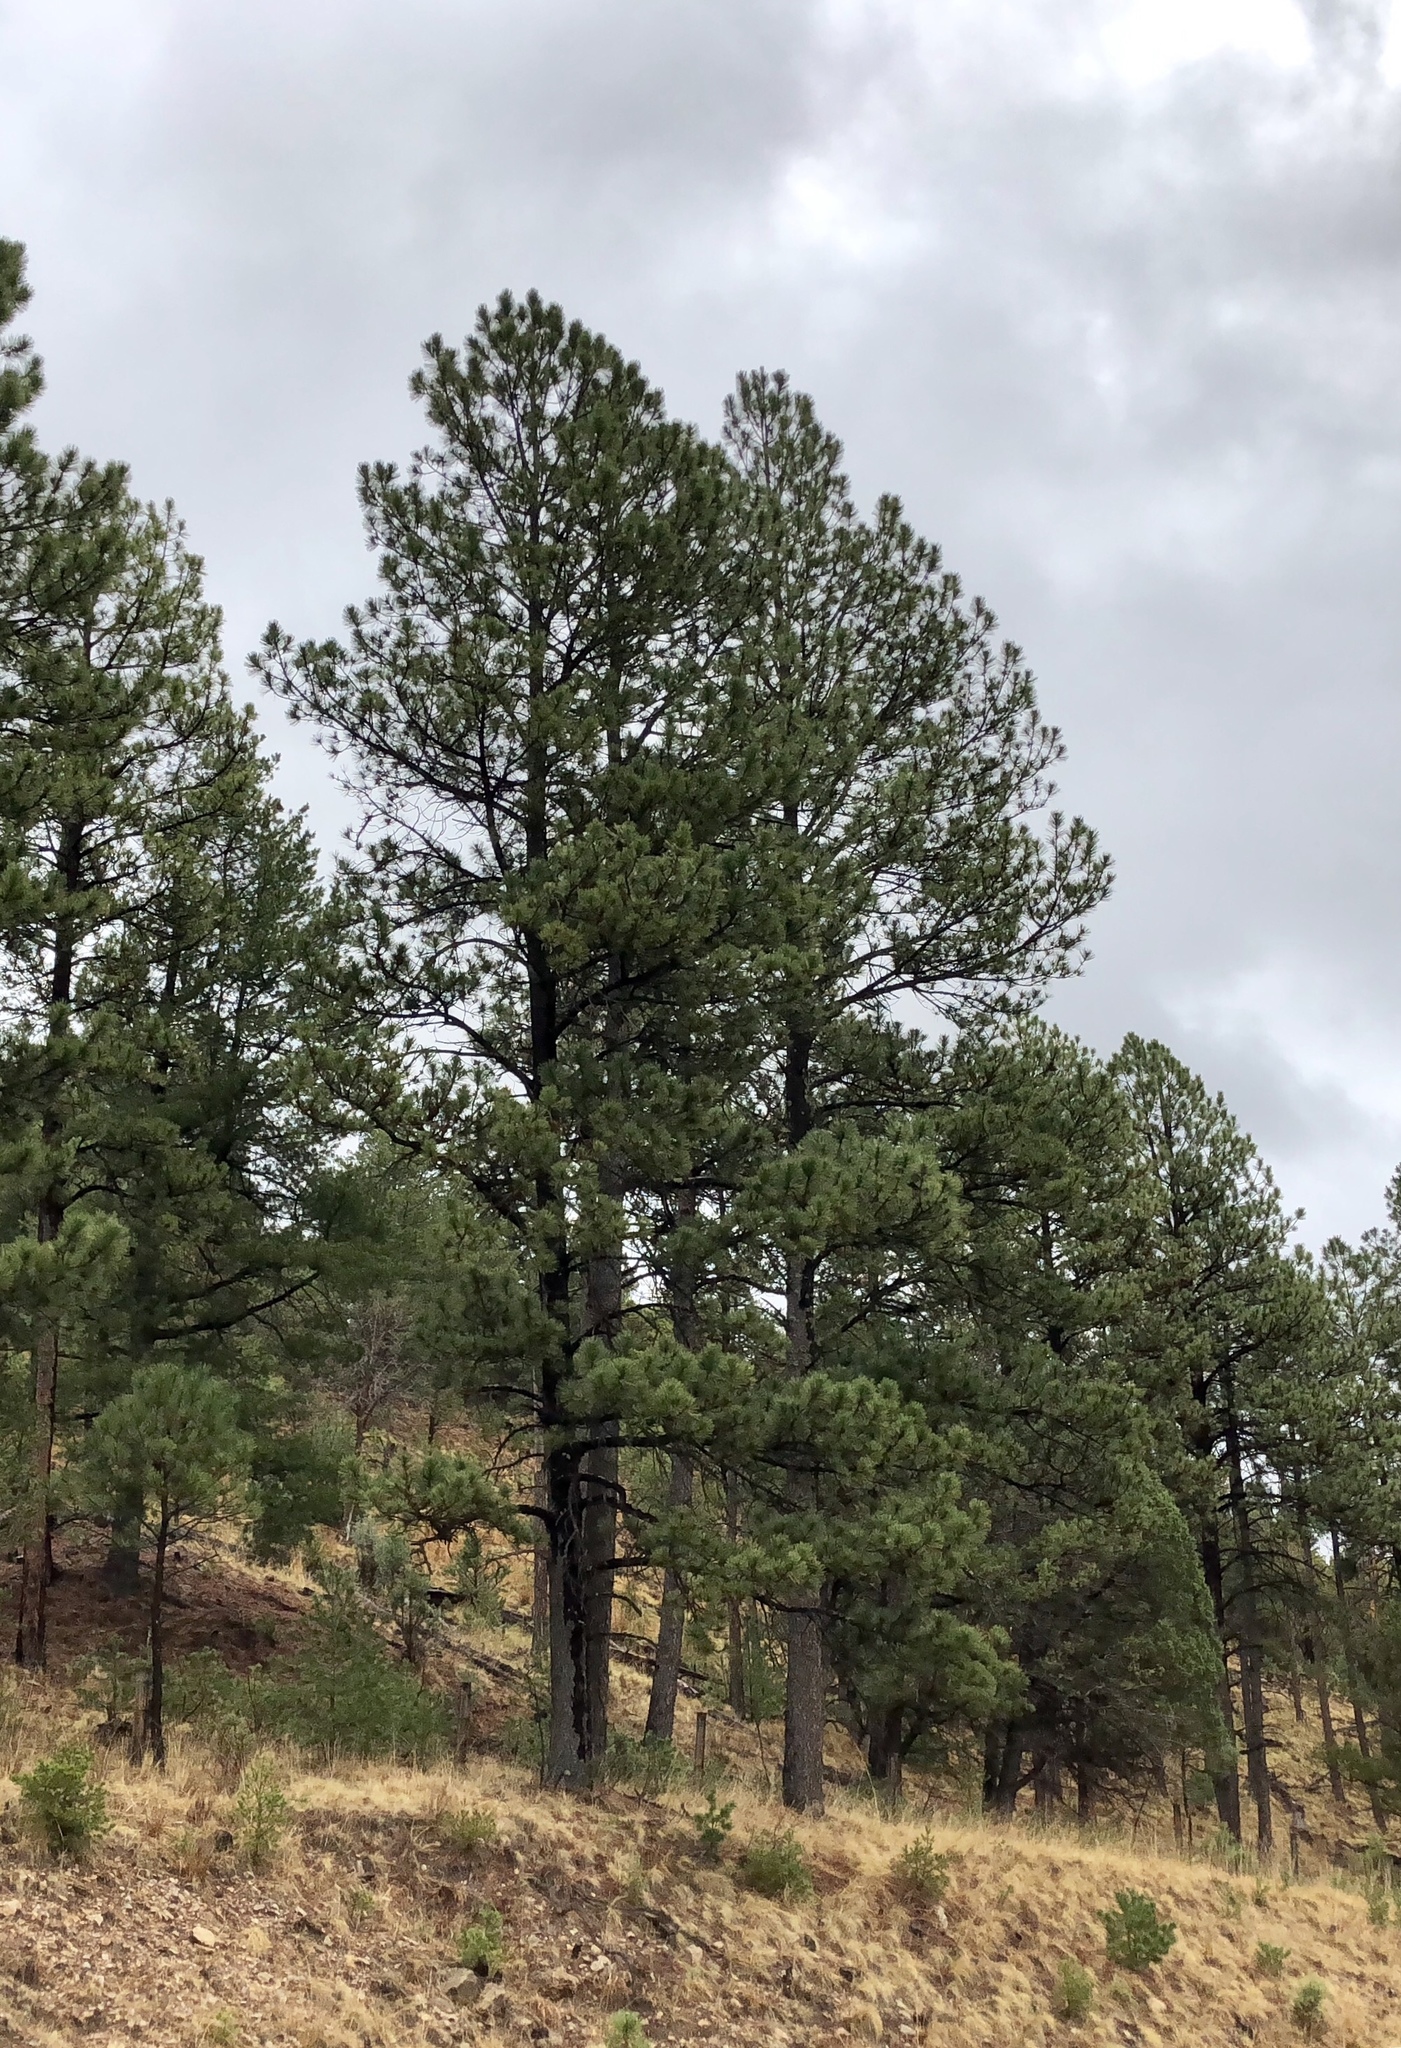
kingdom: Plantae
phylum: Tracheophyta
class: Pinopsida
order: Pinales
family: Pinaceae
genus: Pinus
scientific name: Pinus ponderosa
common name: Western yellow-pine
